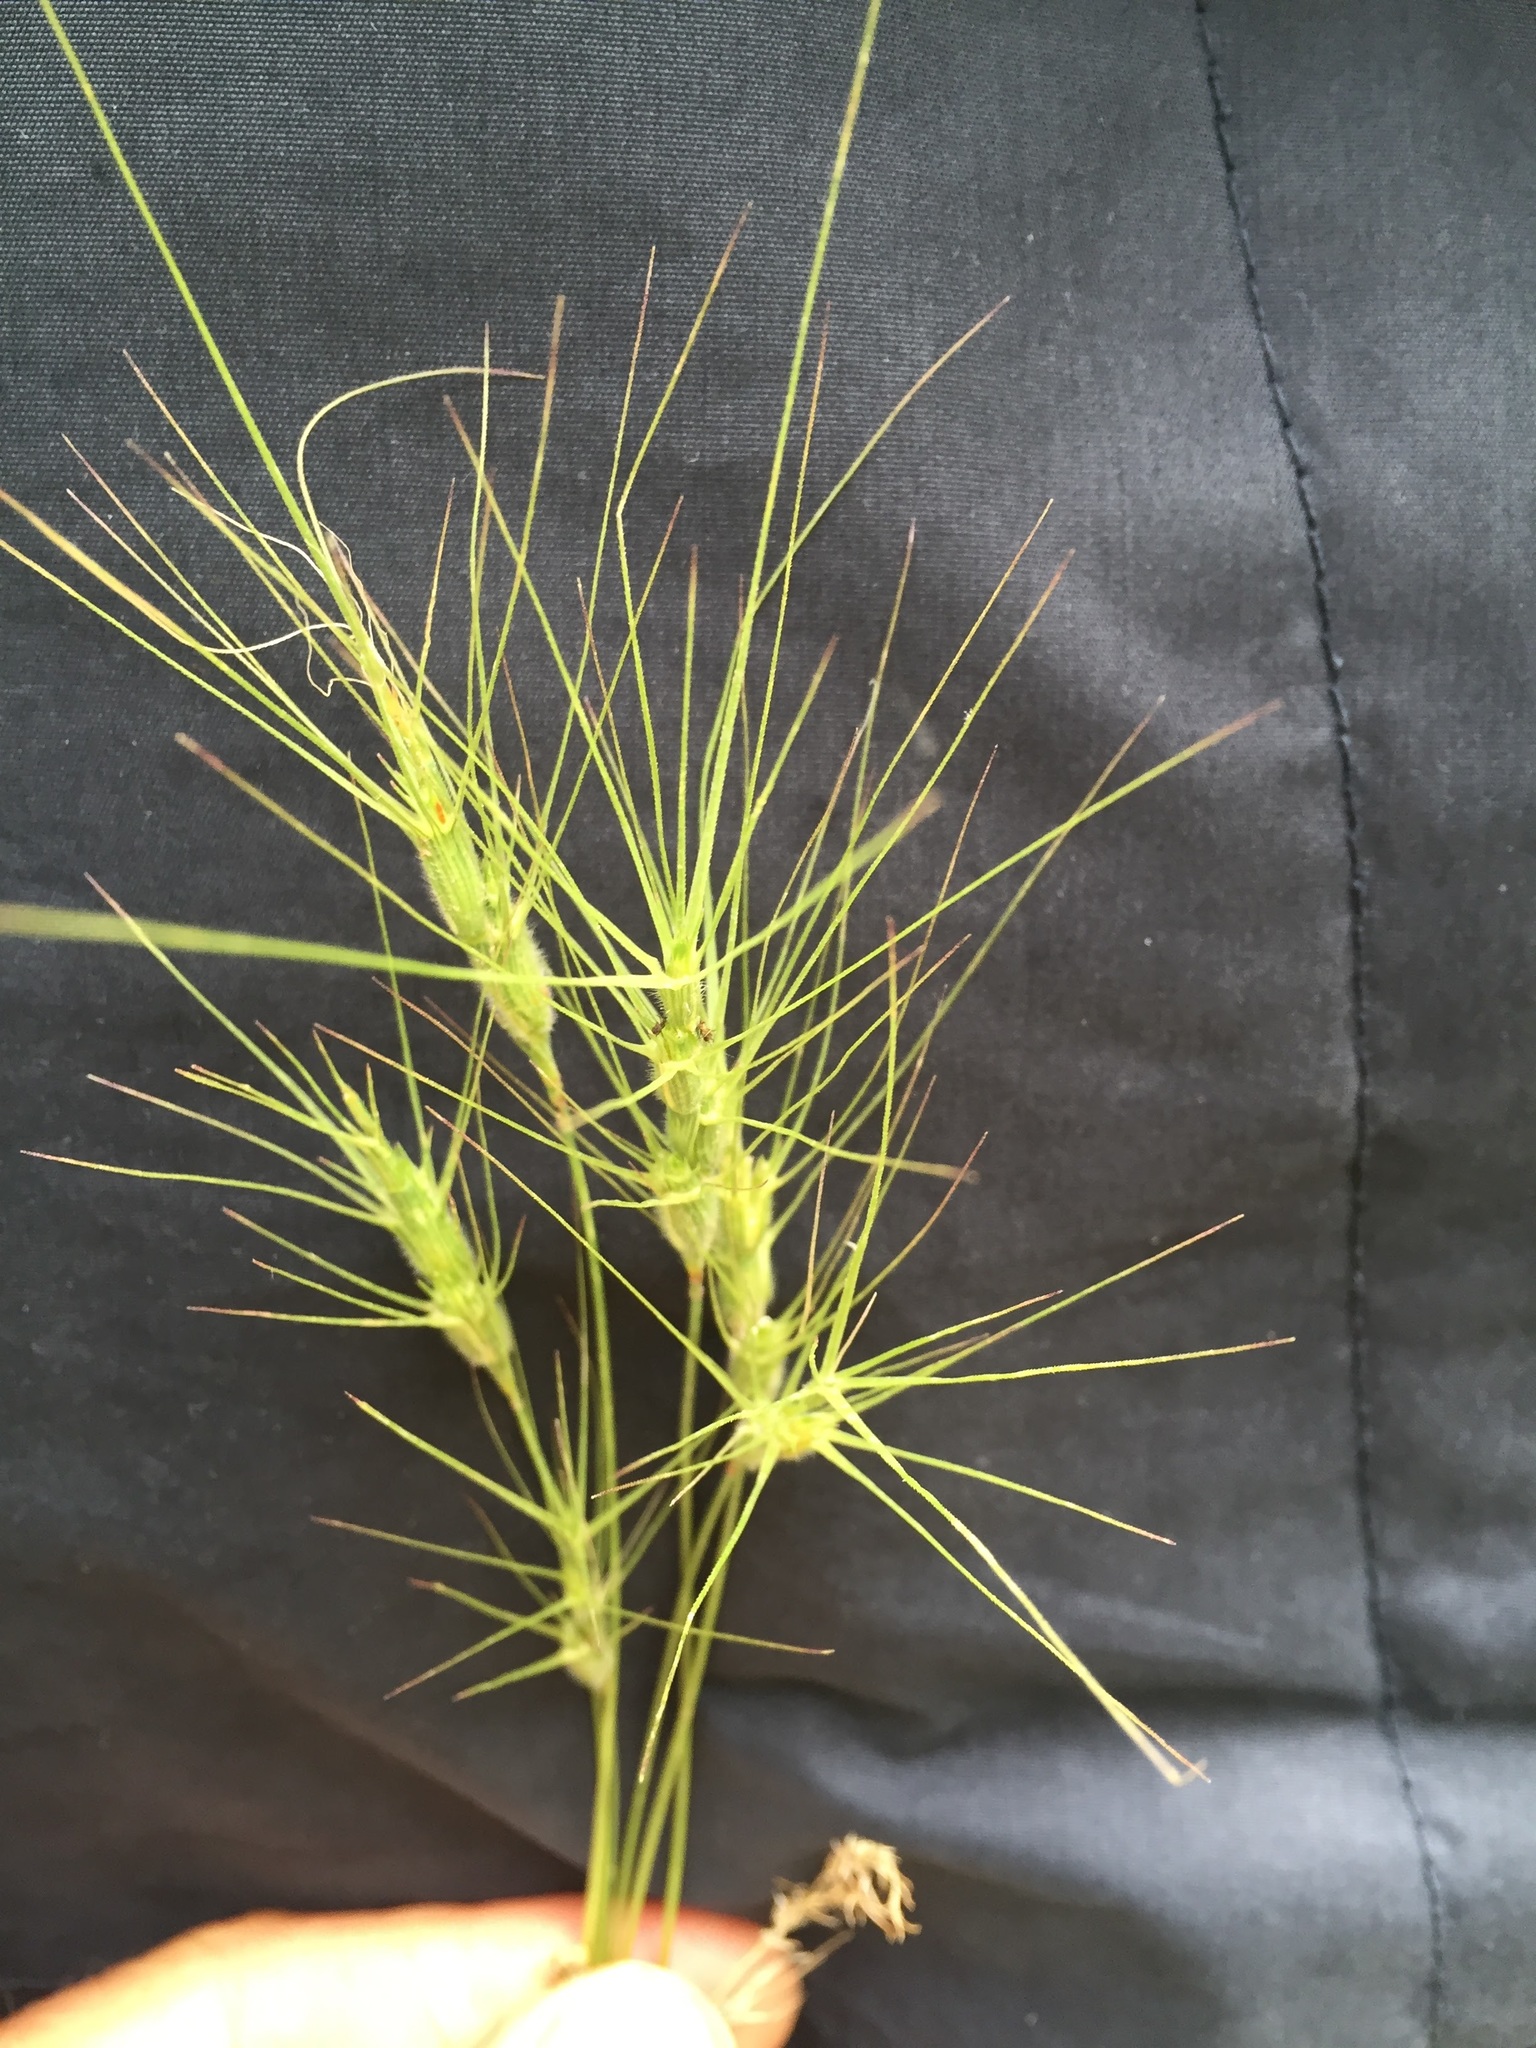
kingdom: Plantae
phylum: Tracheophyta
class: Liliopsida
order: Poales
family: Poaceae
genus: Aegilops
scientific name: Aegilops triuncialis
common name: Barb goat grass
